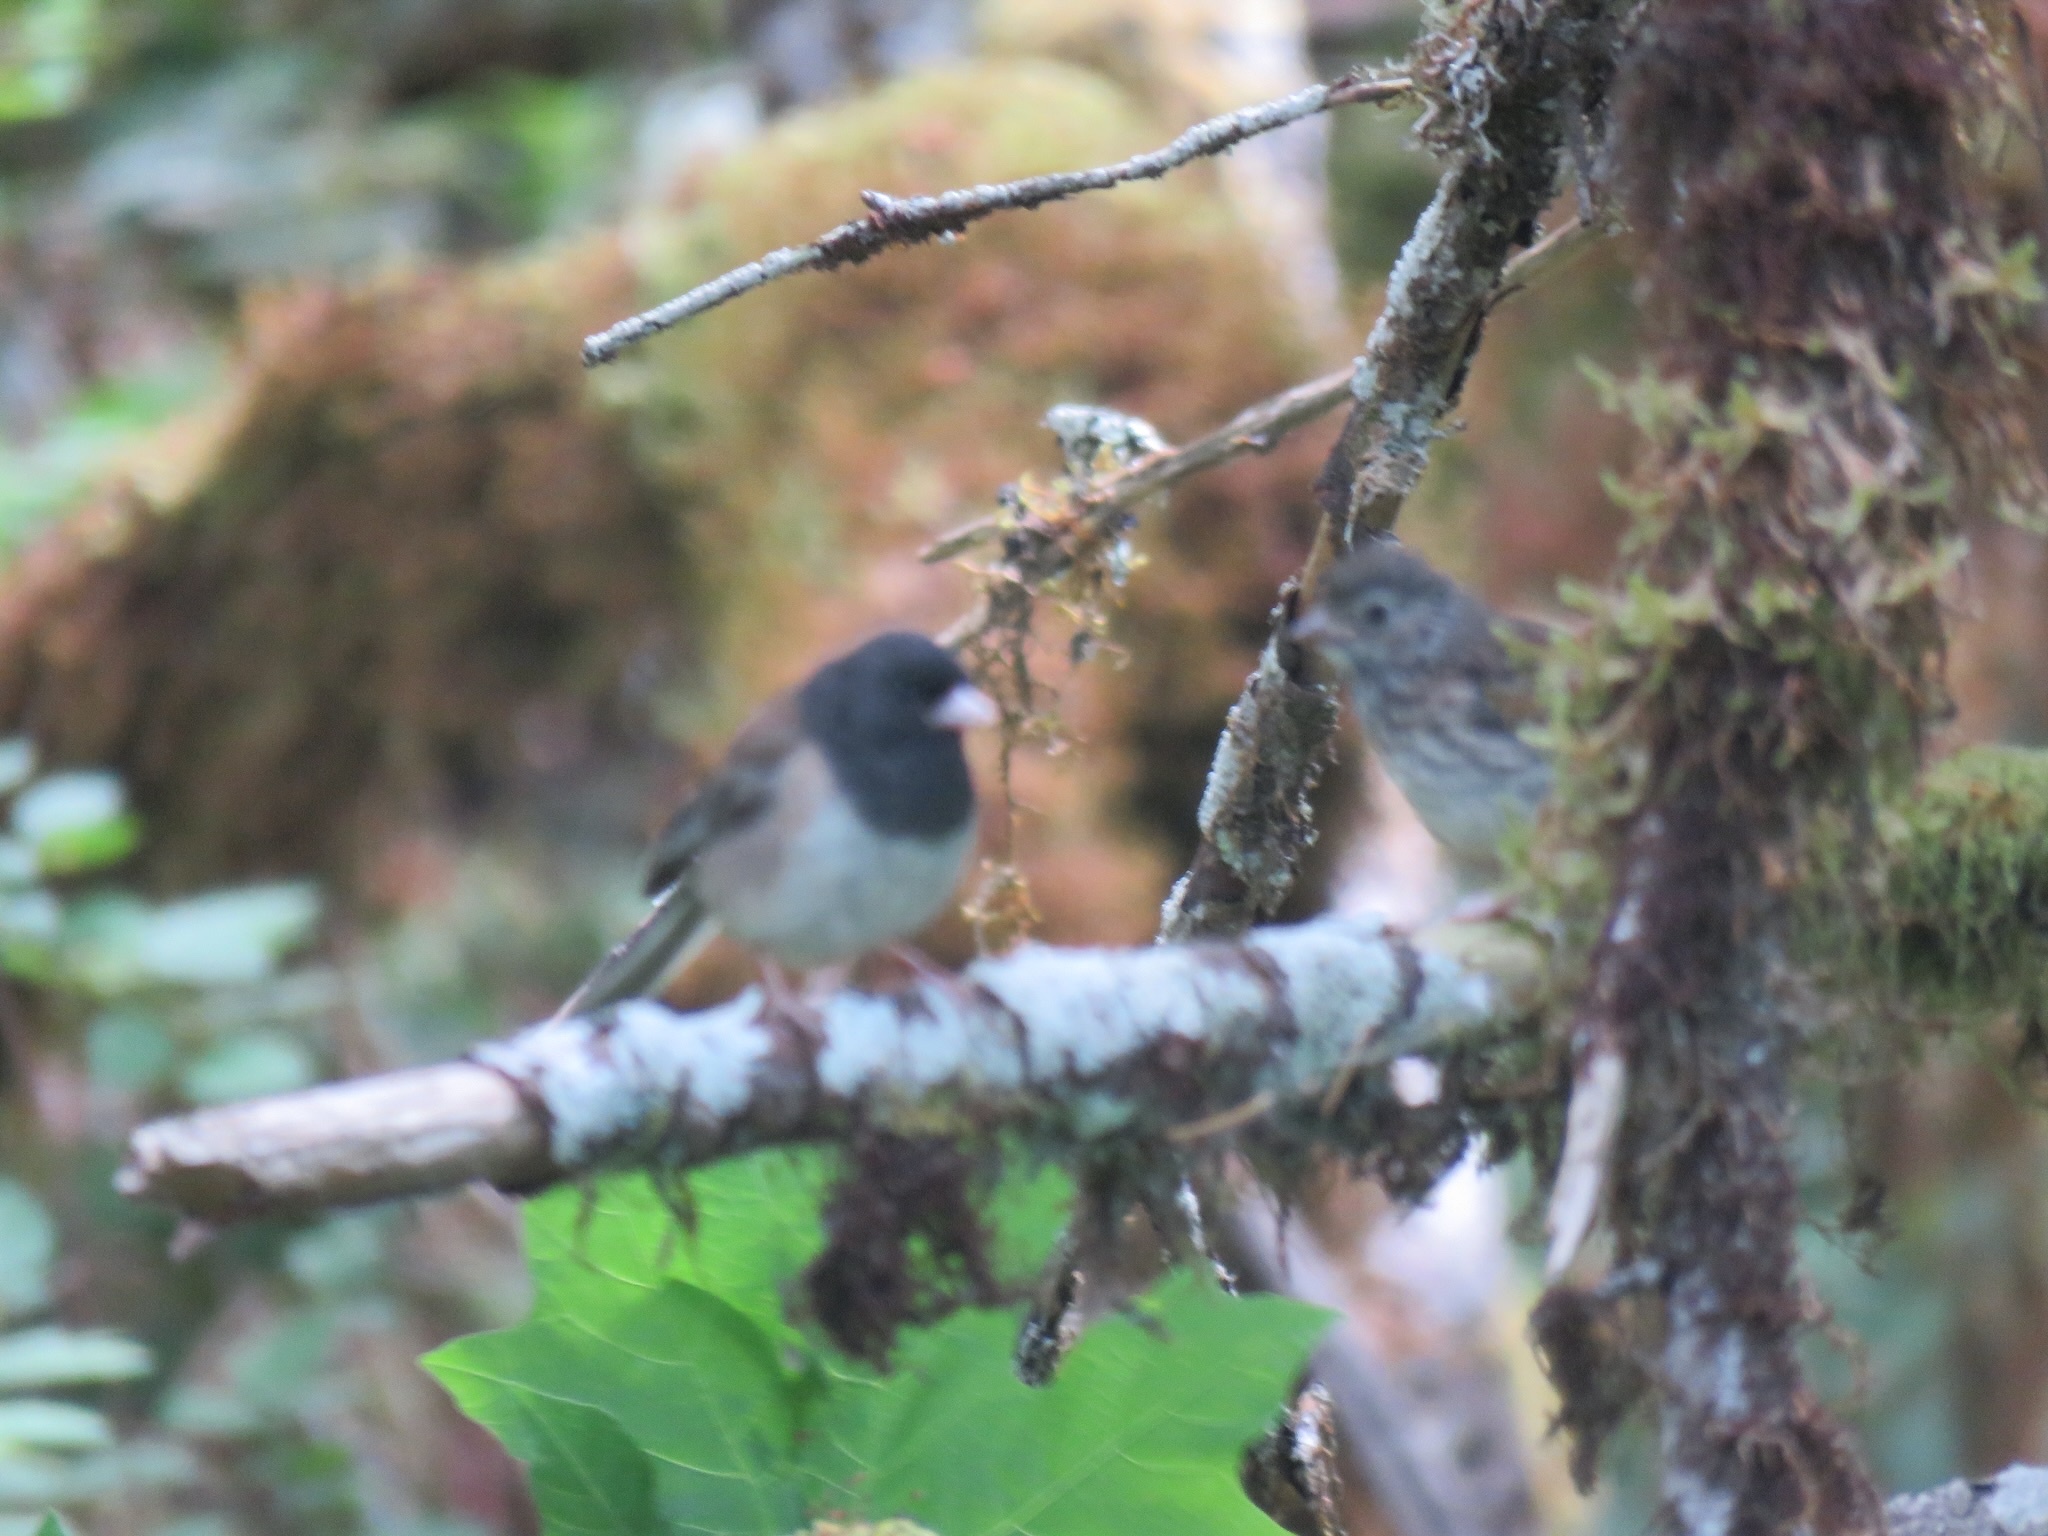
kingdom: Animalia
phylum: Chordata
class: Aves
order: Passeriformes
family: Passerellidae
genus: Junco
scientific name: Junco hyemalis
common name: Dark-eyed junco
